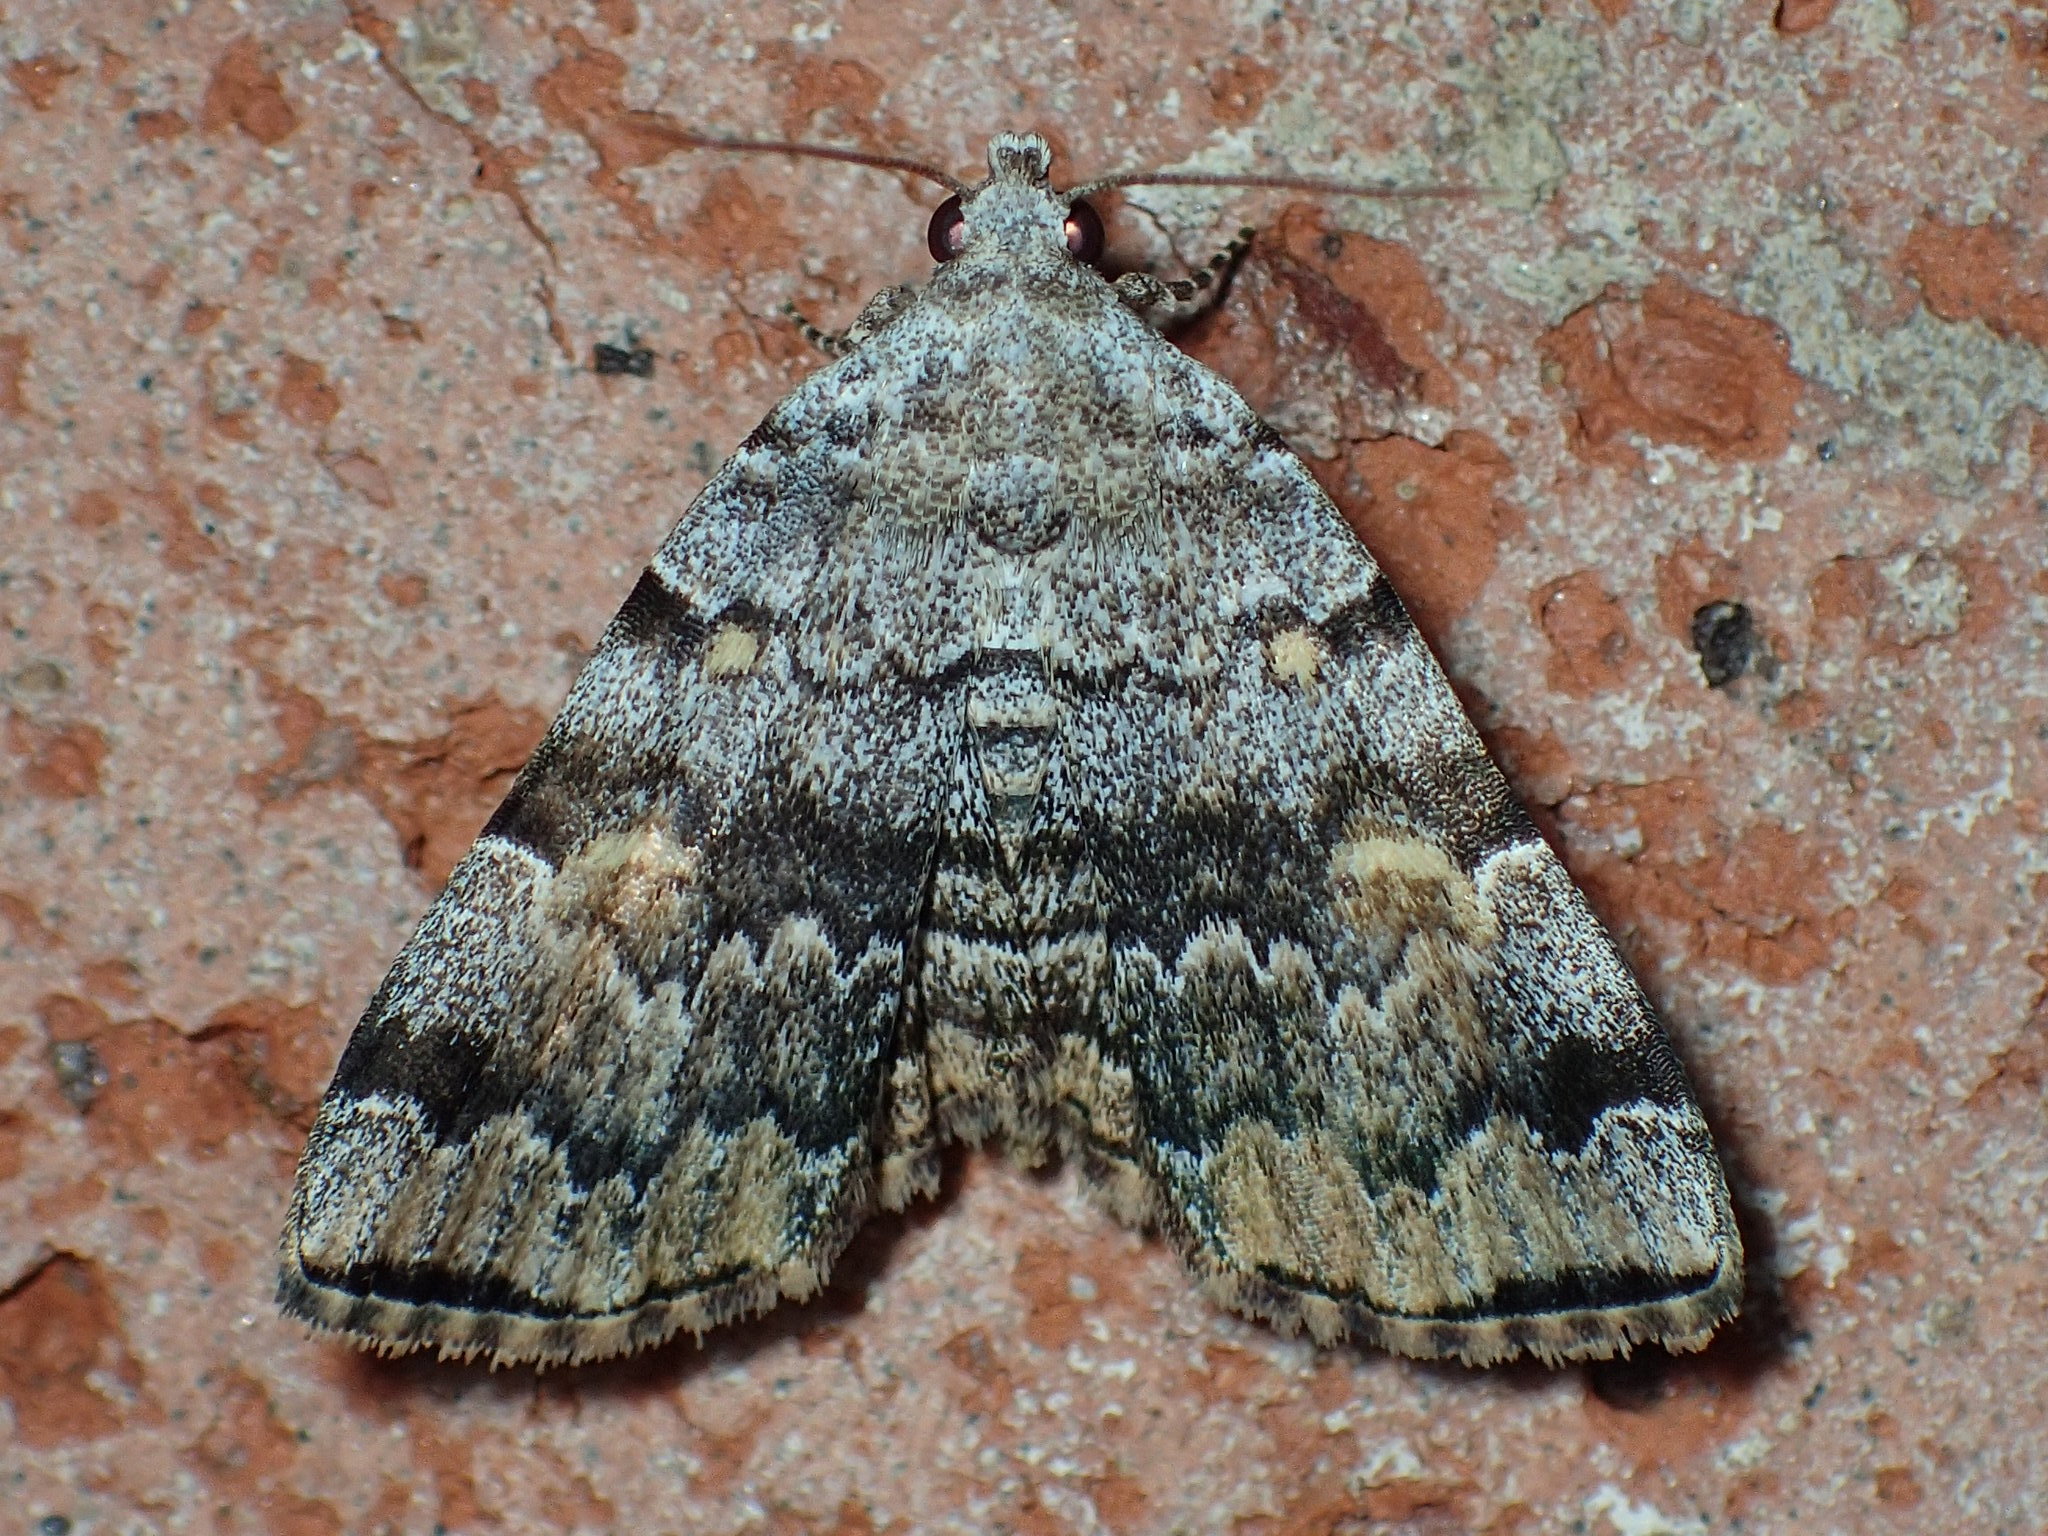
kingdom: Animalia
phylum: Arthropoda
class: Insecta
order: Lepidoptera
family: Erebidae
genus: Idia
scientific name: Idia americalis
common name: American idia moth
